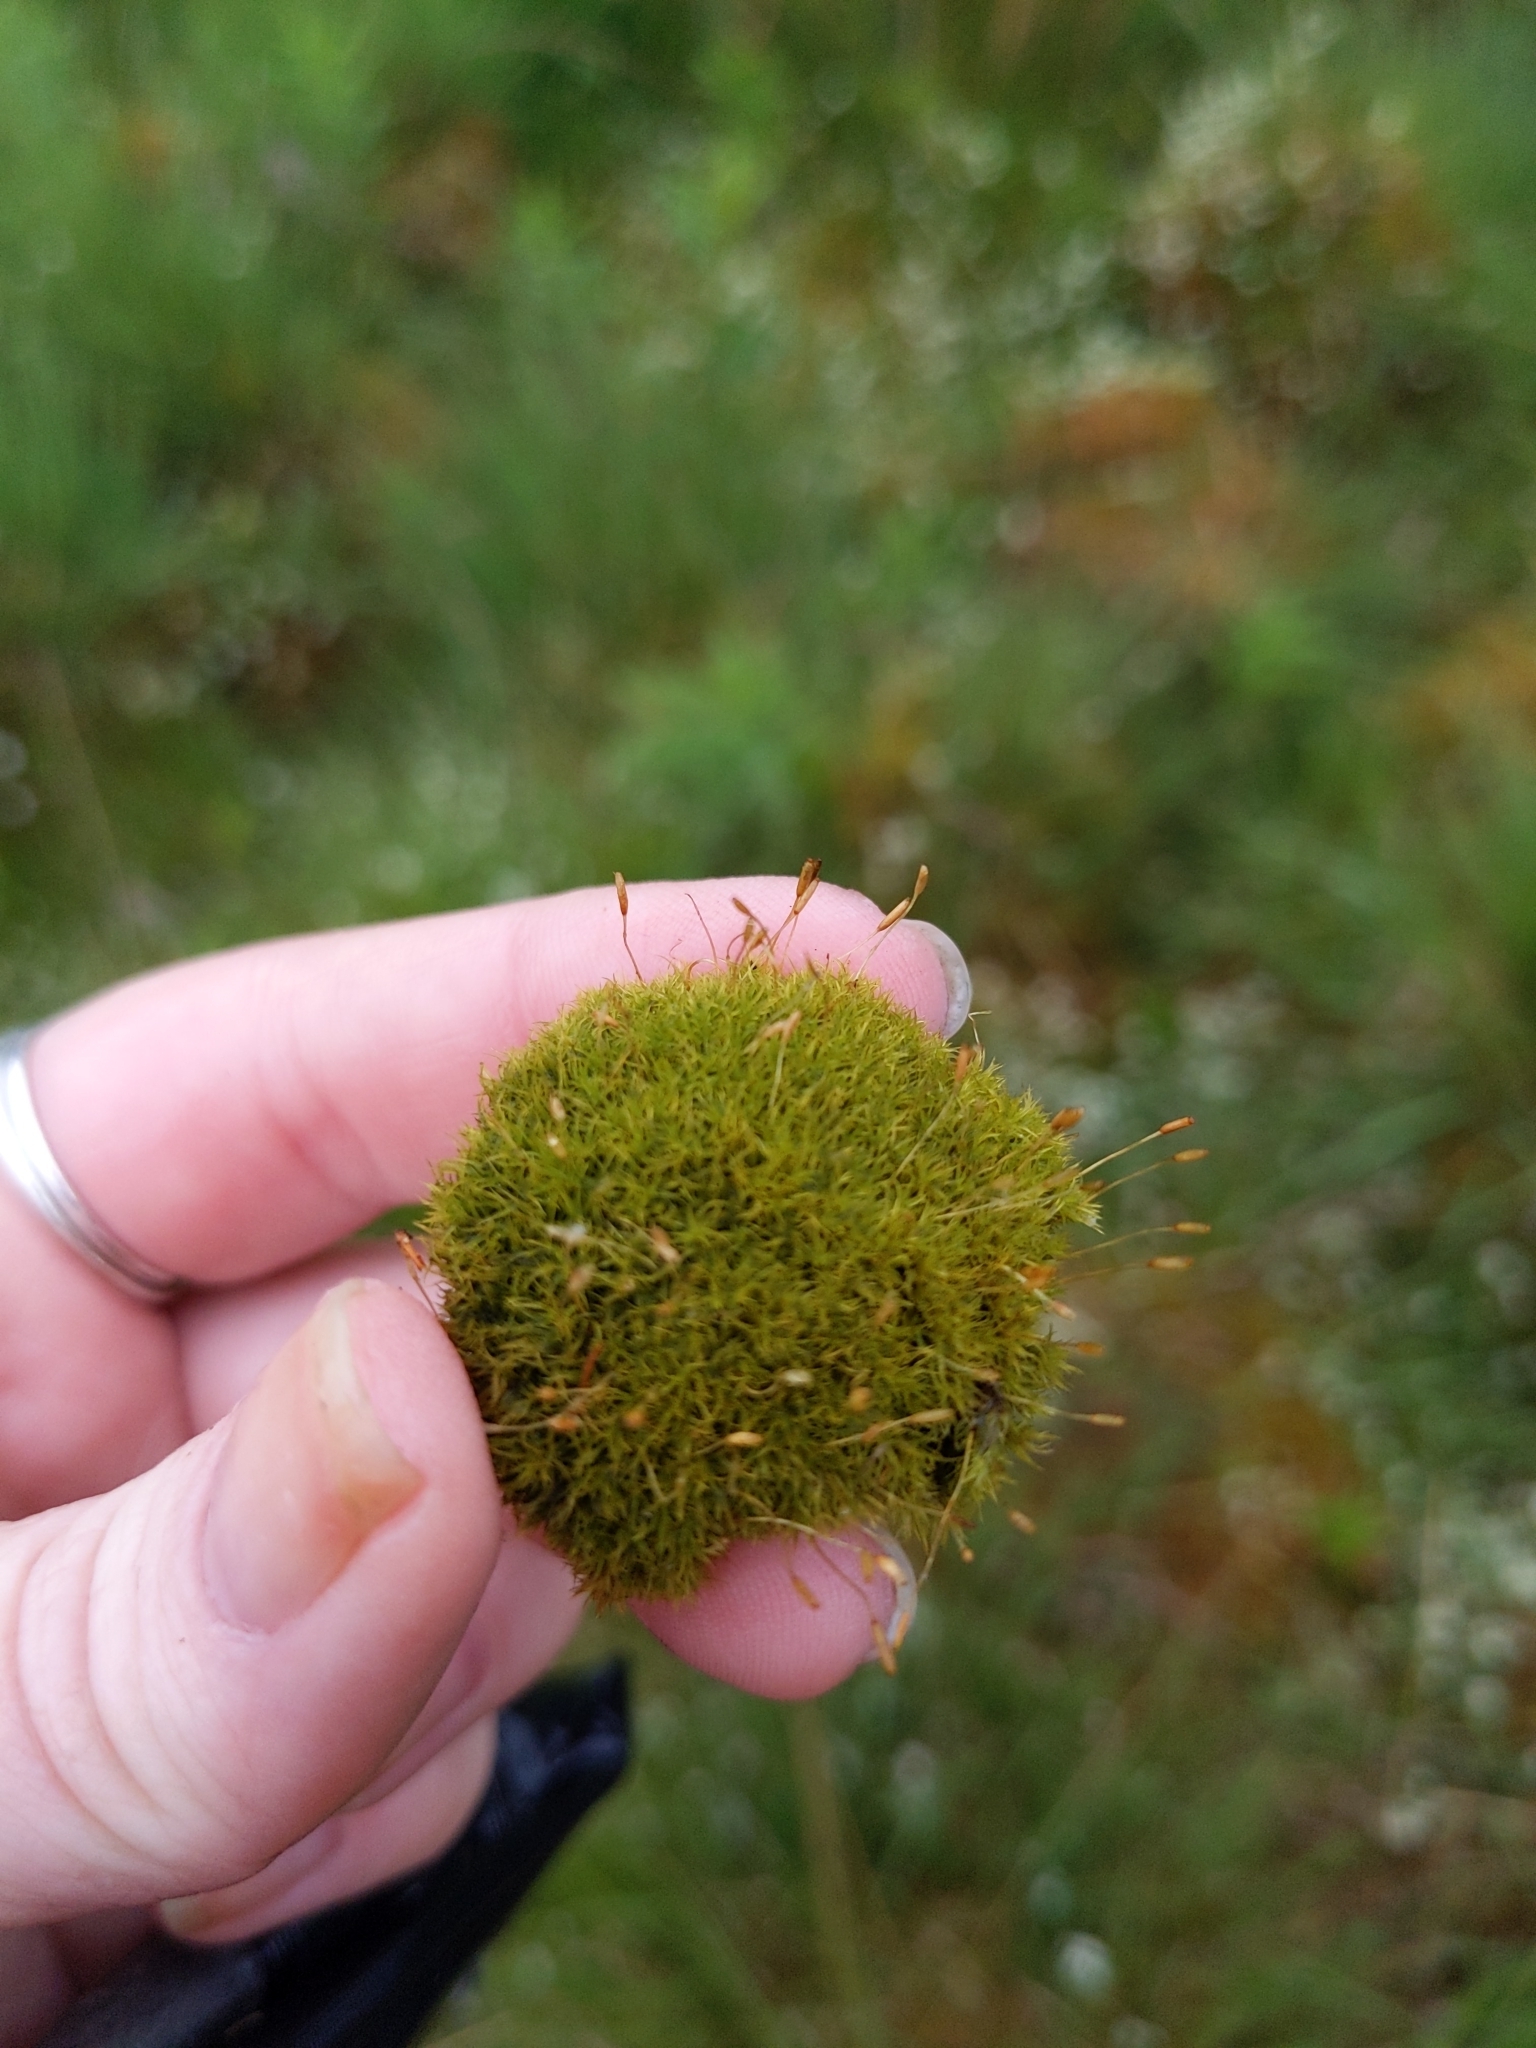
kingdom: Plantae
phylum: Bryophyta
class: Bryopsida
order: Dicranales
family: Rhabdoweisiaceae
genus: Dicranoweisia
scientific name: Dicranoweisia cirrata
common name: Common pincushion
